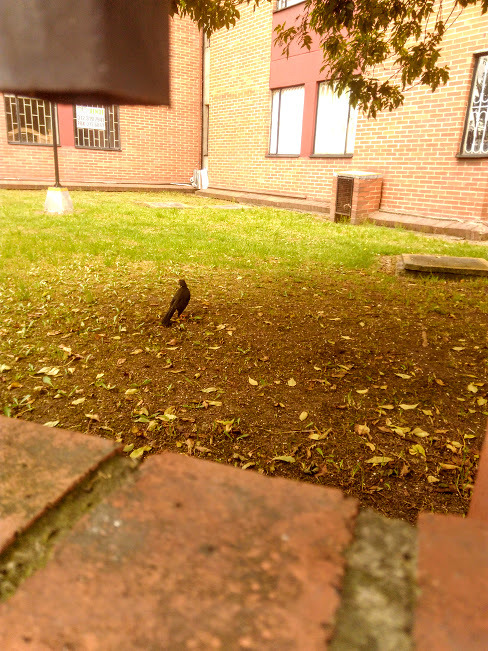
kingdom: Animalia
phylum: Chordata
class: Aves
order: Passeriformes
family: Turdidae
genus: Turdus
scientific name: Turdus fuscater
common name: Great thrush
